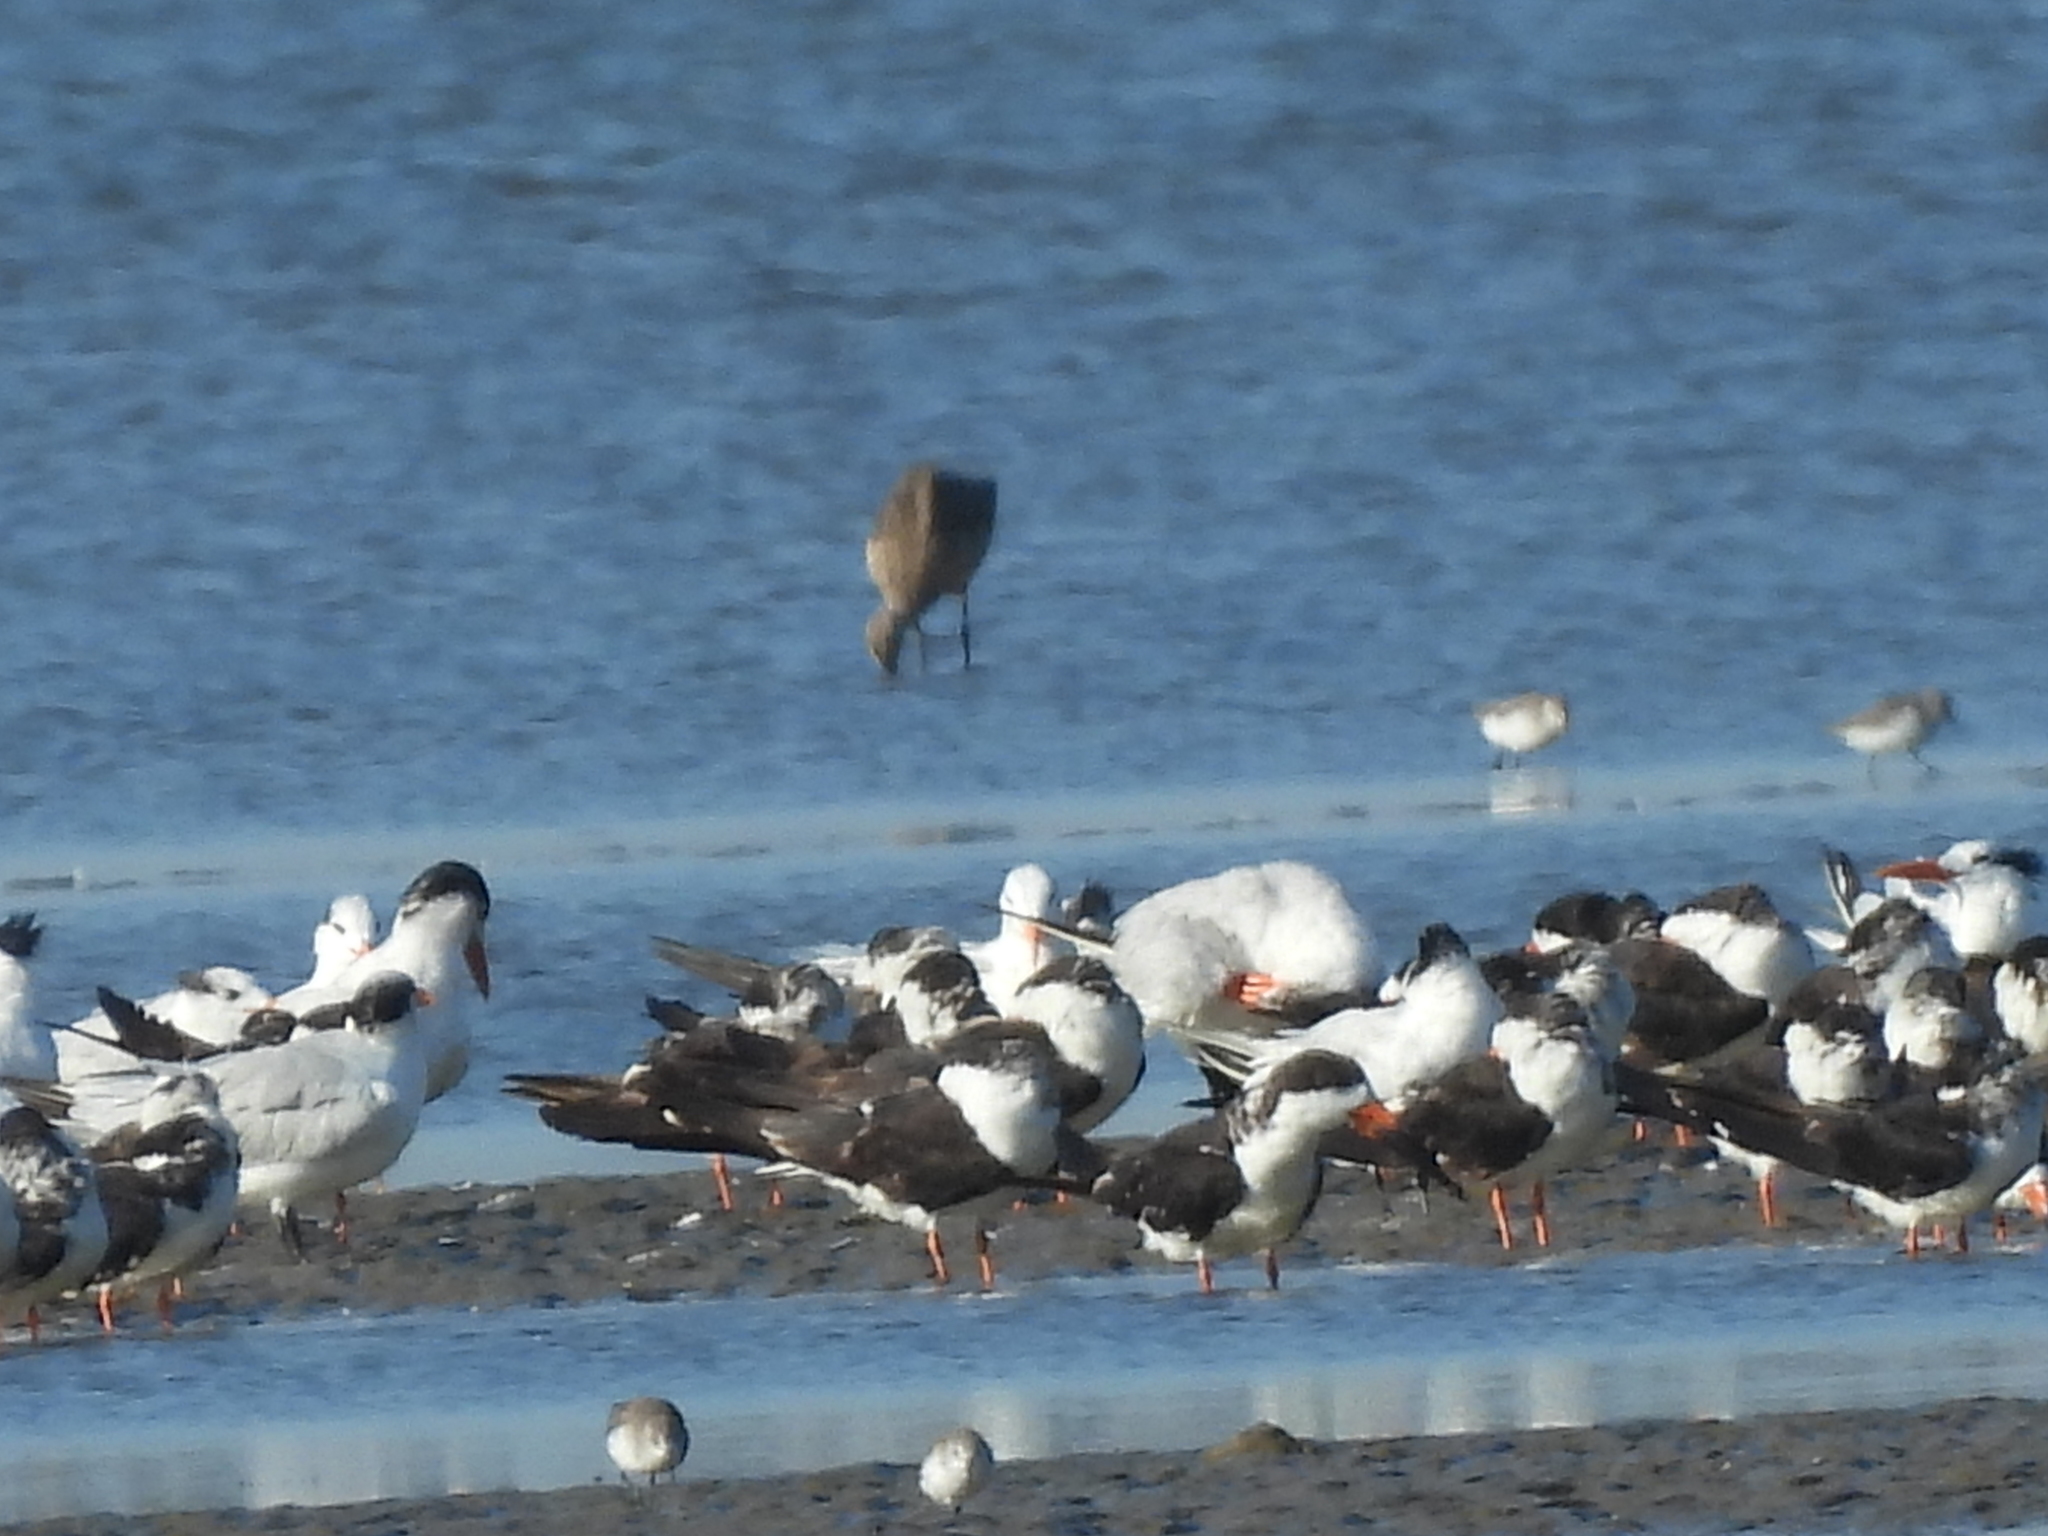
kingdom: Animalia
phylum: Chordata
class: Aves
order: Charadriiformes
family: Laridae
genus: Rynchops
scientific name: Rynchops niger
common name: Black skimmer
